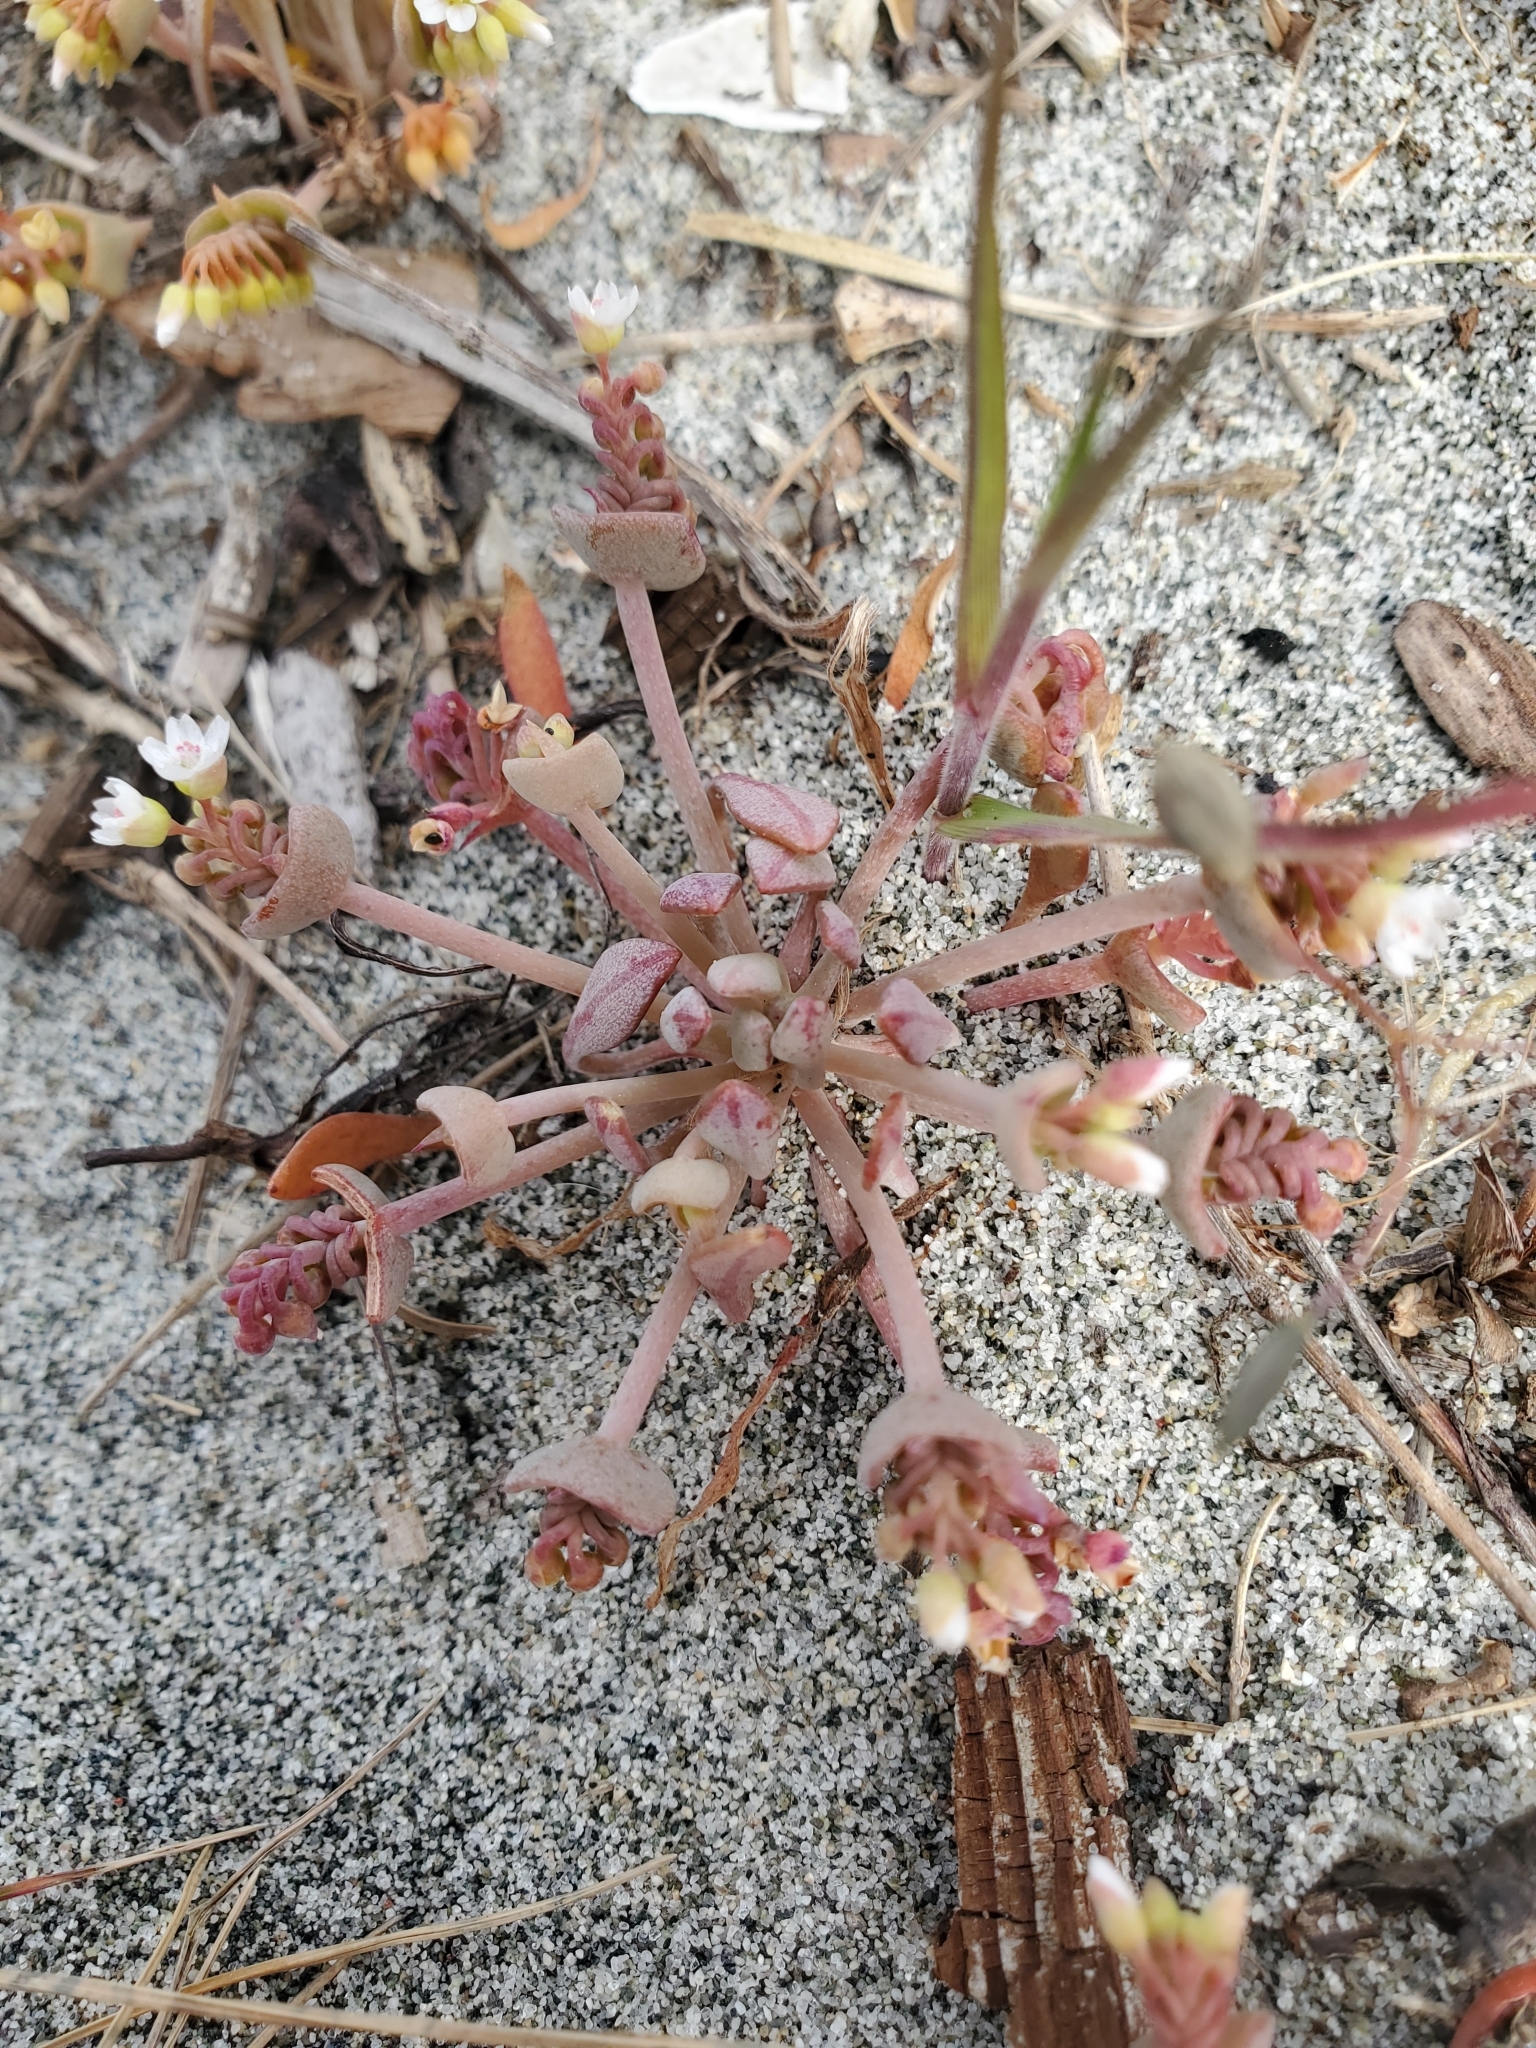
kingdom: Plantae
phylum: Tracheophyta
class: Magnoliopsida
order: Caryophyllales
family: Montiaceae
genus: Claytonia
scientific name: Claytonia exigua
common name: Pale spring beauty
